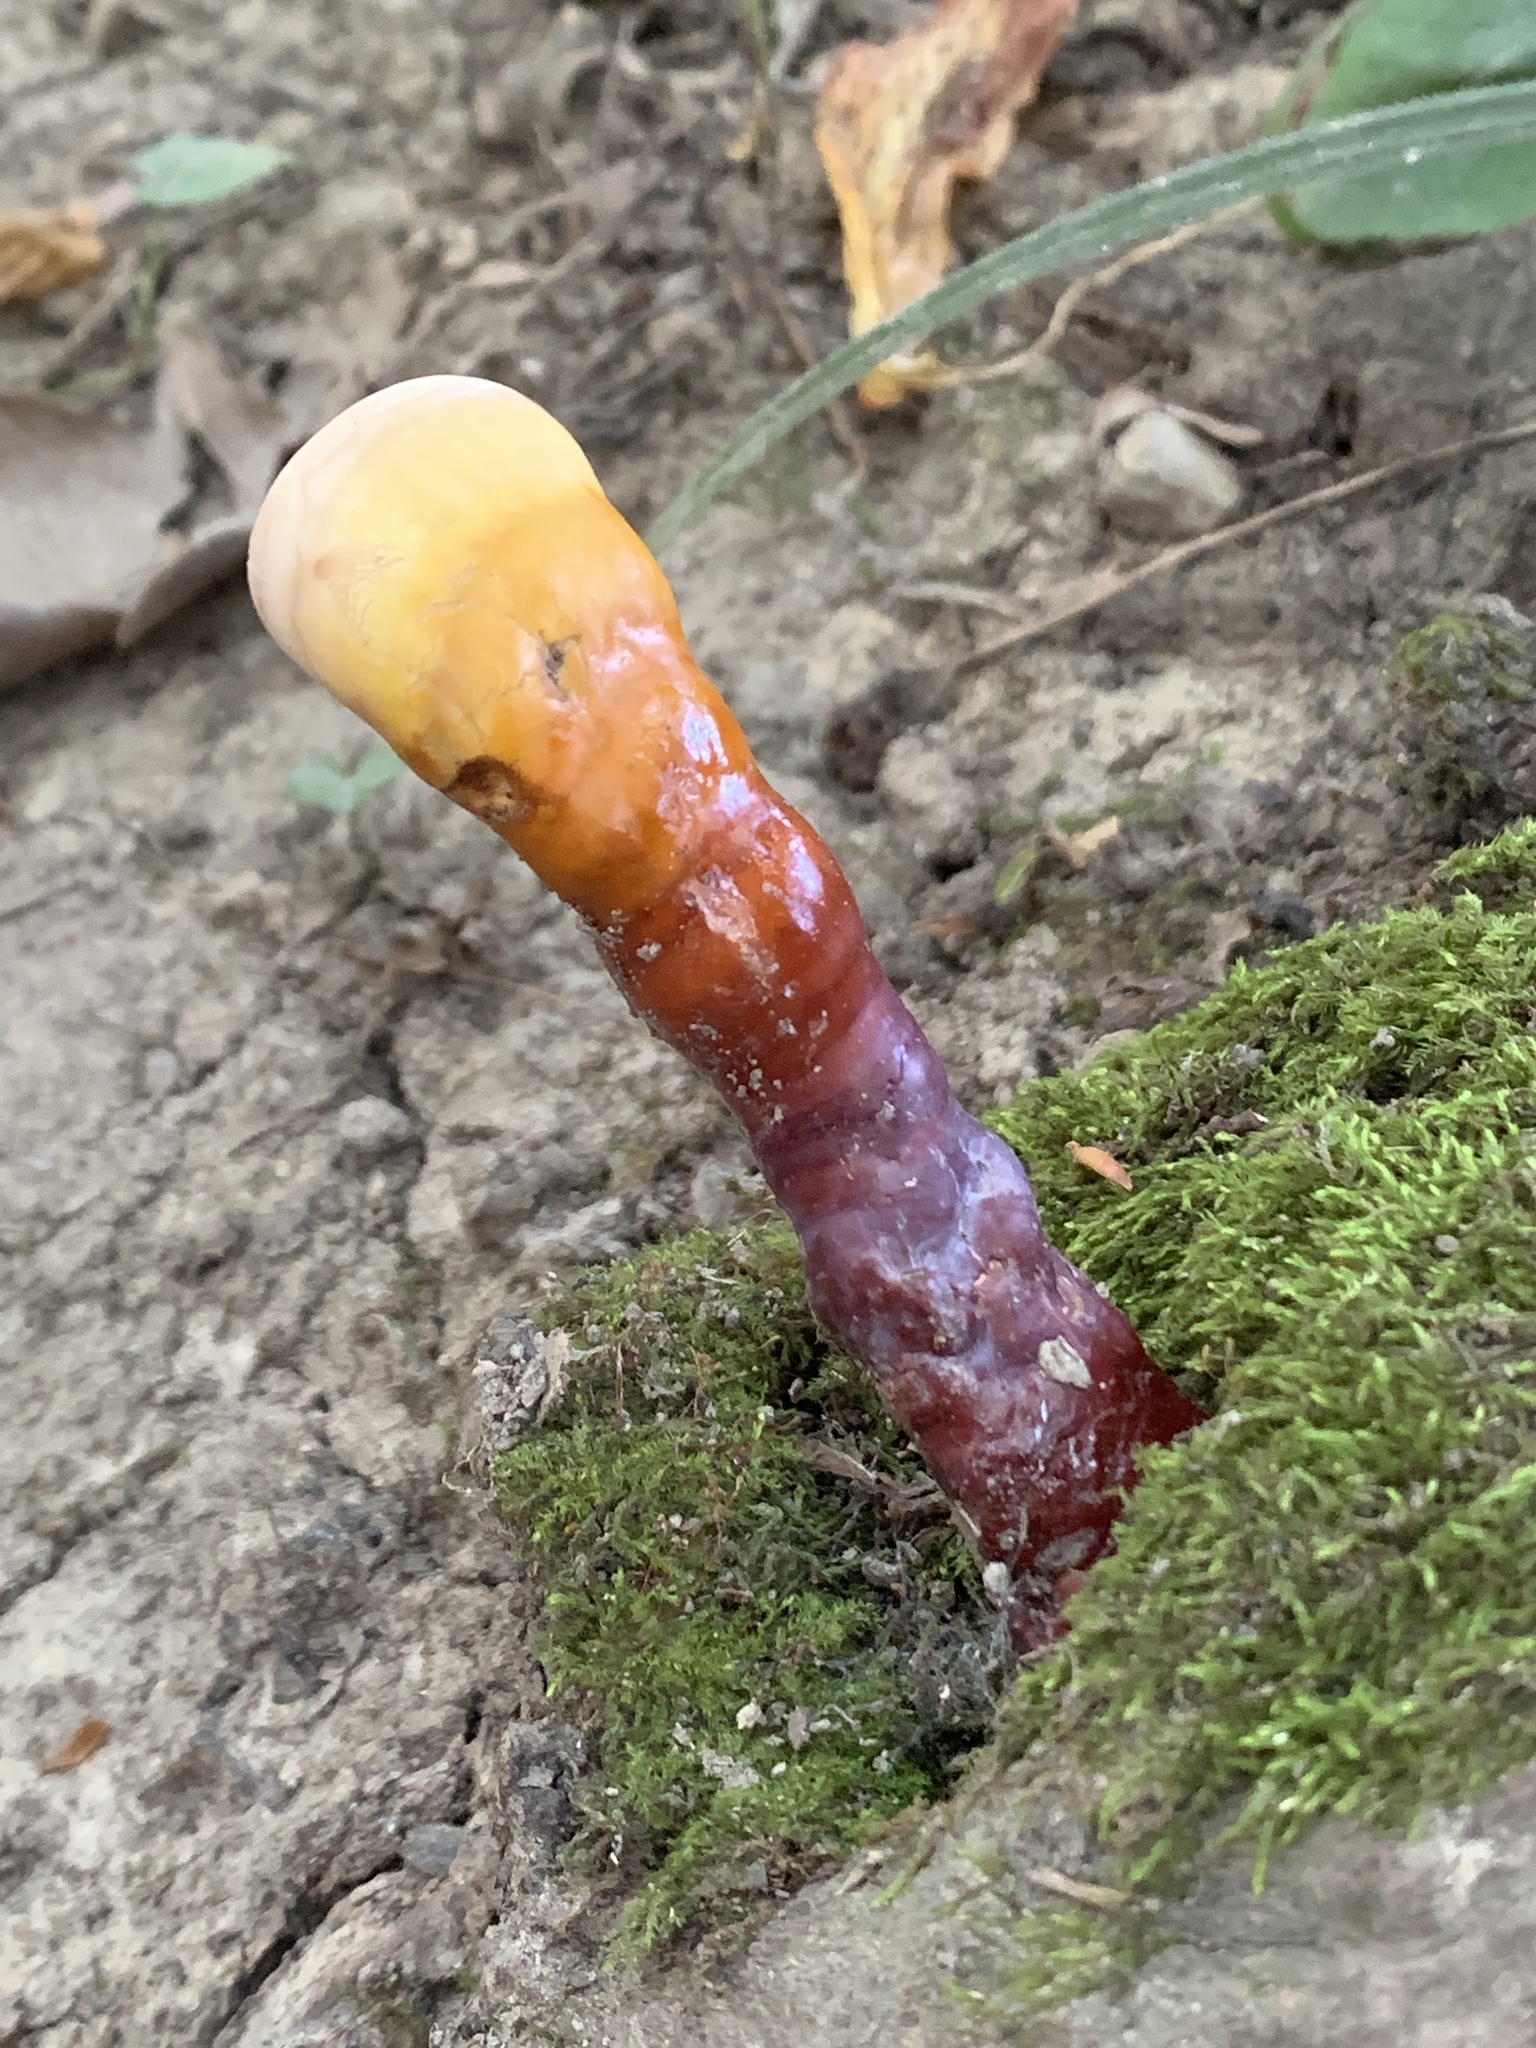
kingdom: Fungi
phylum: Basidiomycota
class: Agaricomycetes
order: Polyporales
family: Polyporaceae
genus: Ganoderma
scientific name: Ganoderma lucidum
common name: Lacquered bracket
